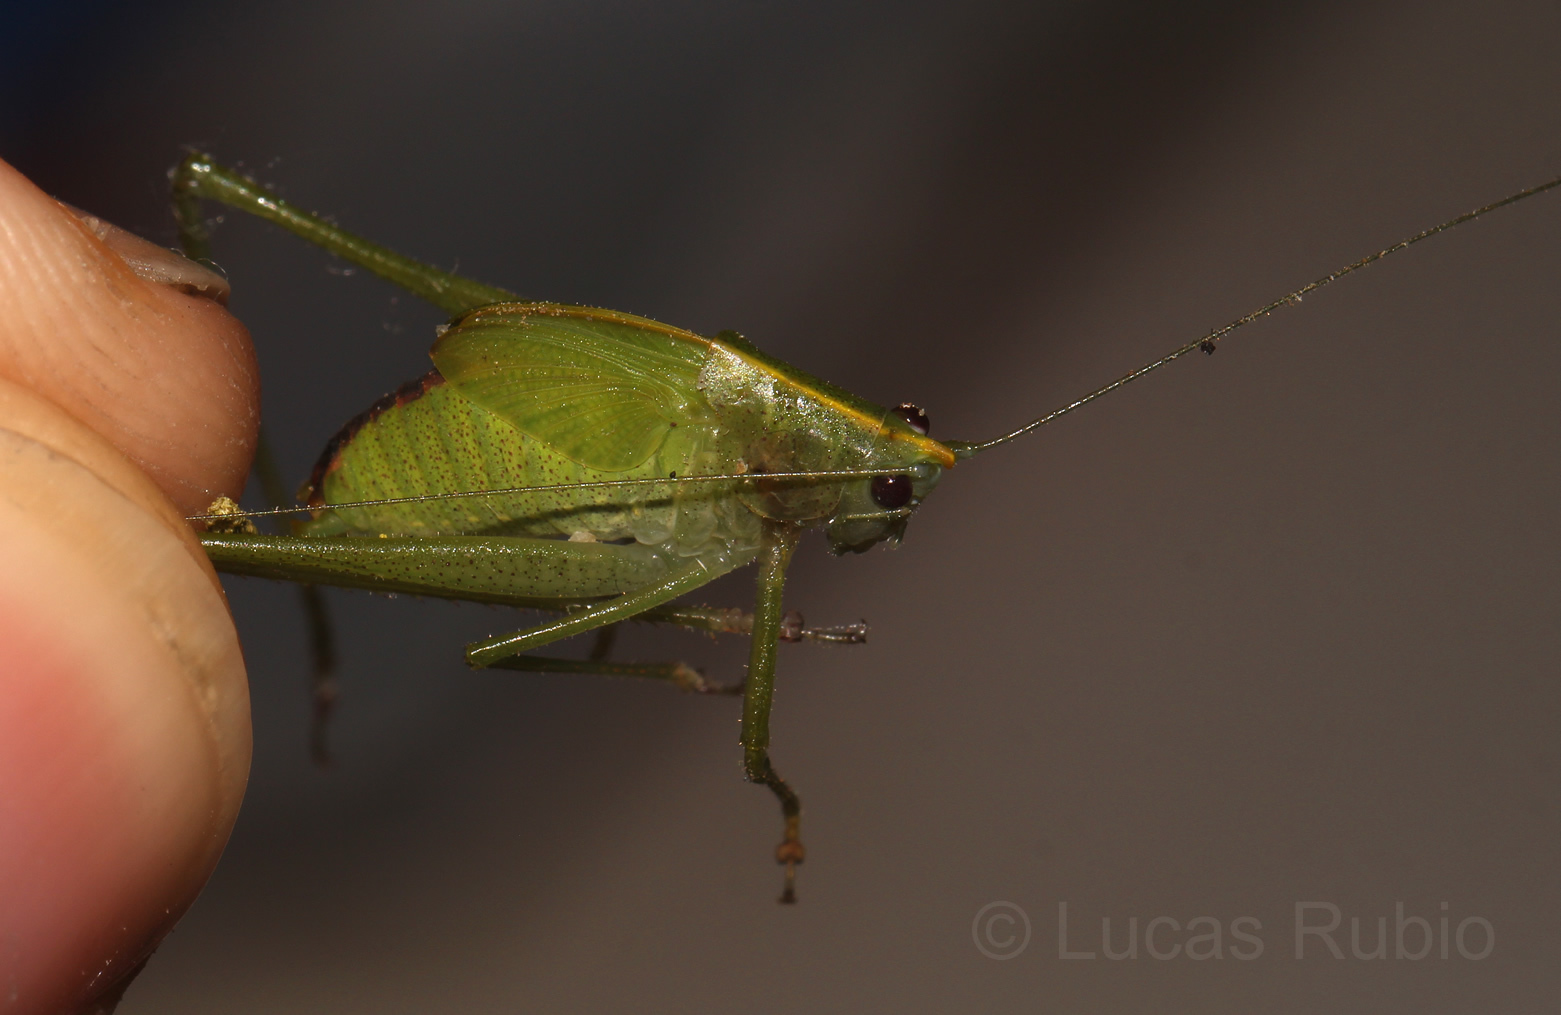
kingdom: Animalia
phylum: Arthropoda
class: Insecta
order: Orthoptera
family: Tettigoniidae
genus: Grammadera
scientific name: Grammadera clara
